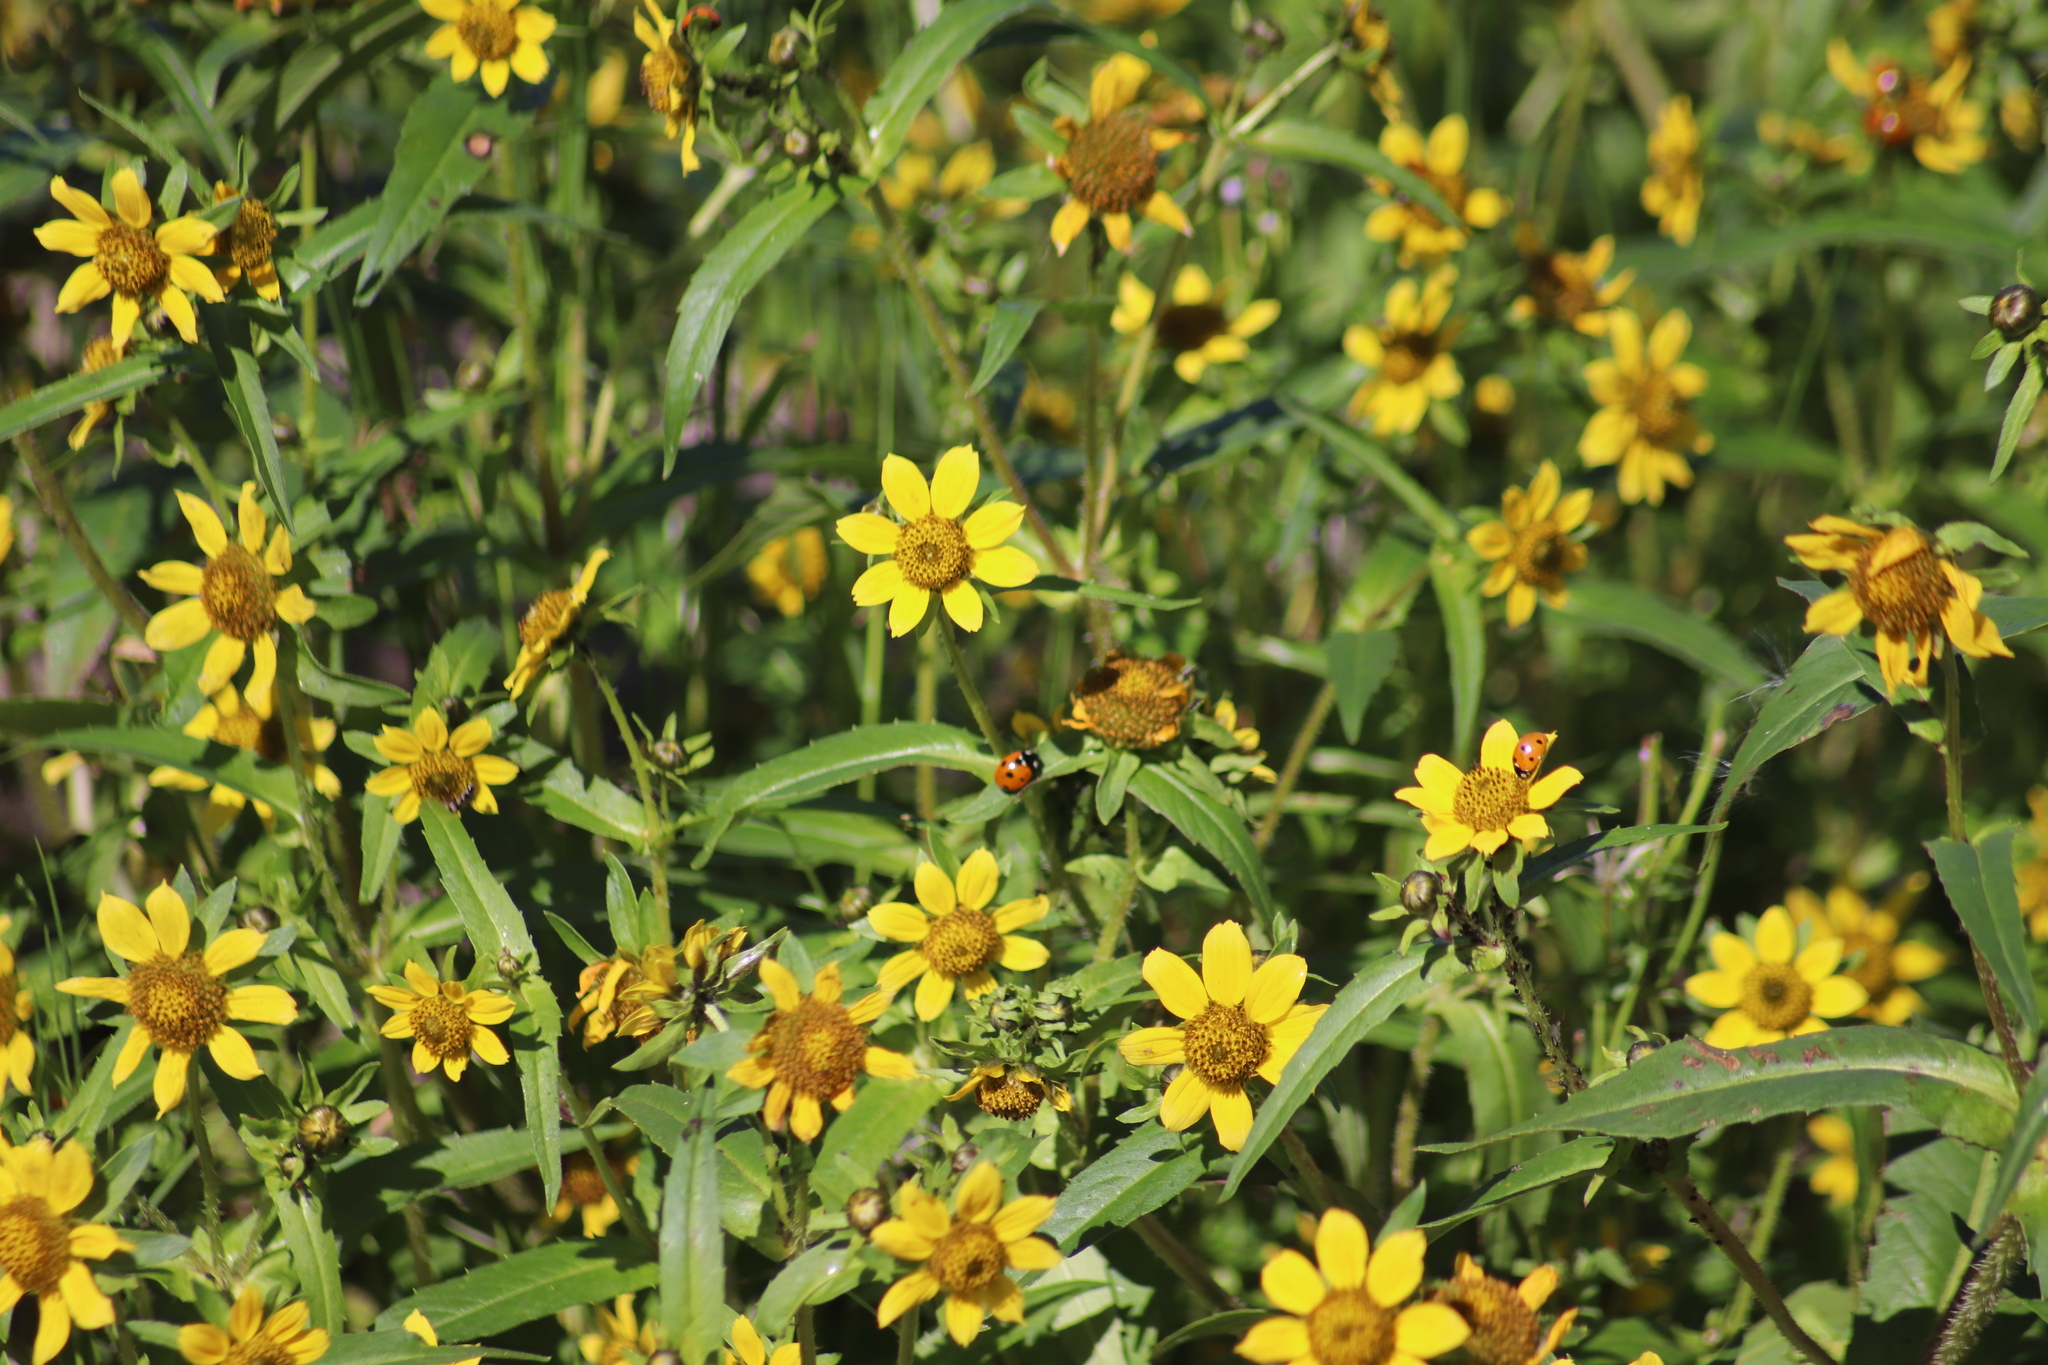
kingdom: Plantae
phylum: Tracheophyta
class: Magnoliopsida
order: Asterales
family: Asteraceae
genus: Bidens
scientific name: Bidens cernua
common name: Nodding bur-marigold
